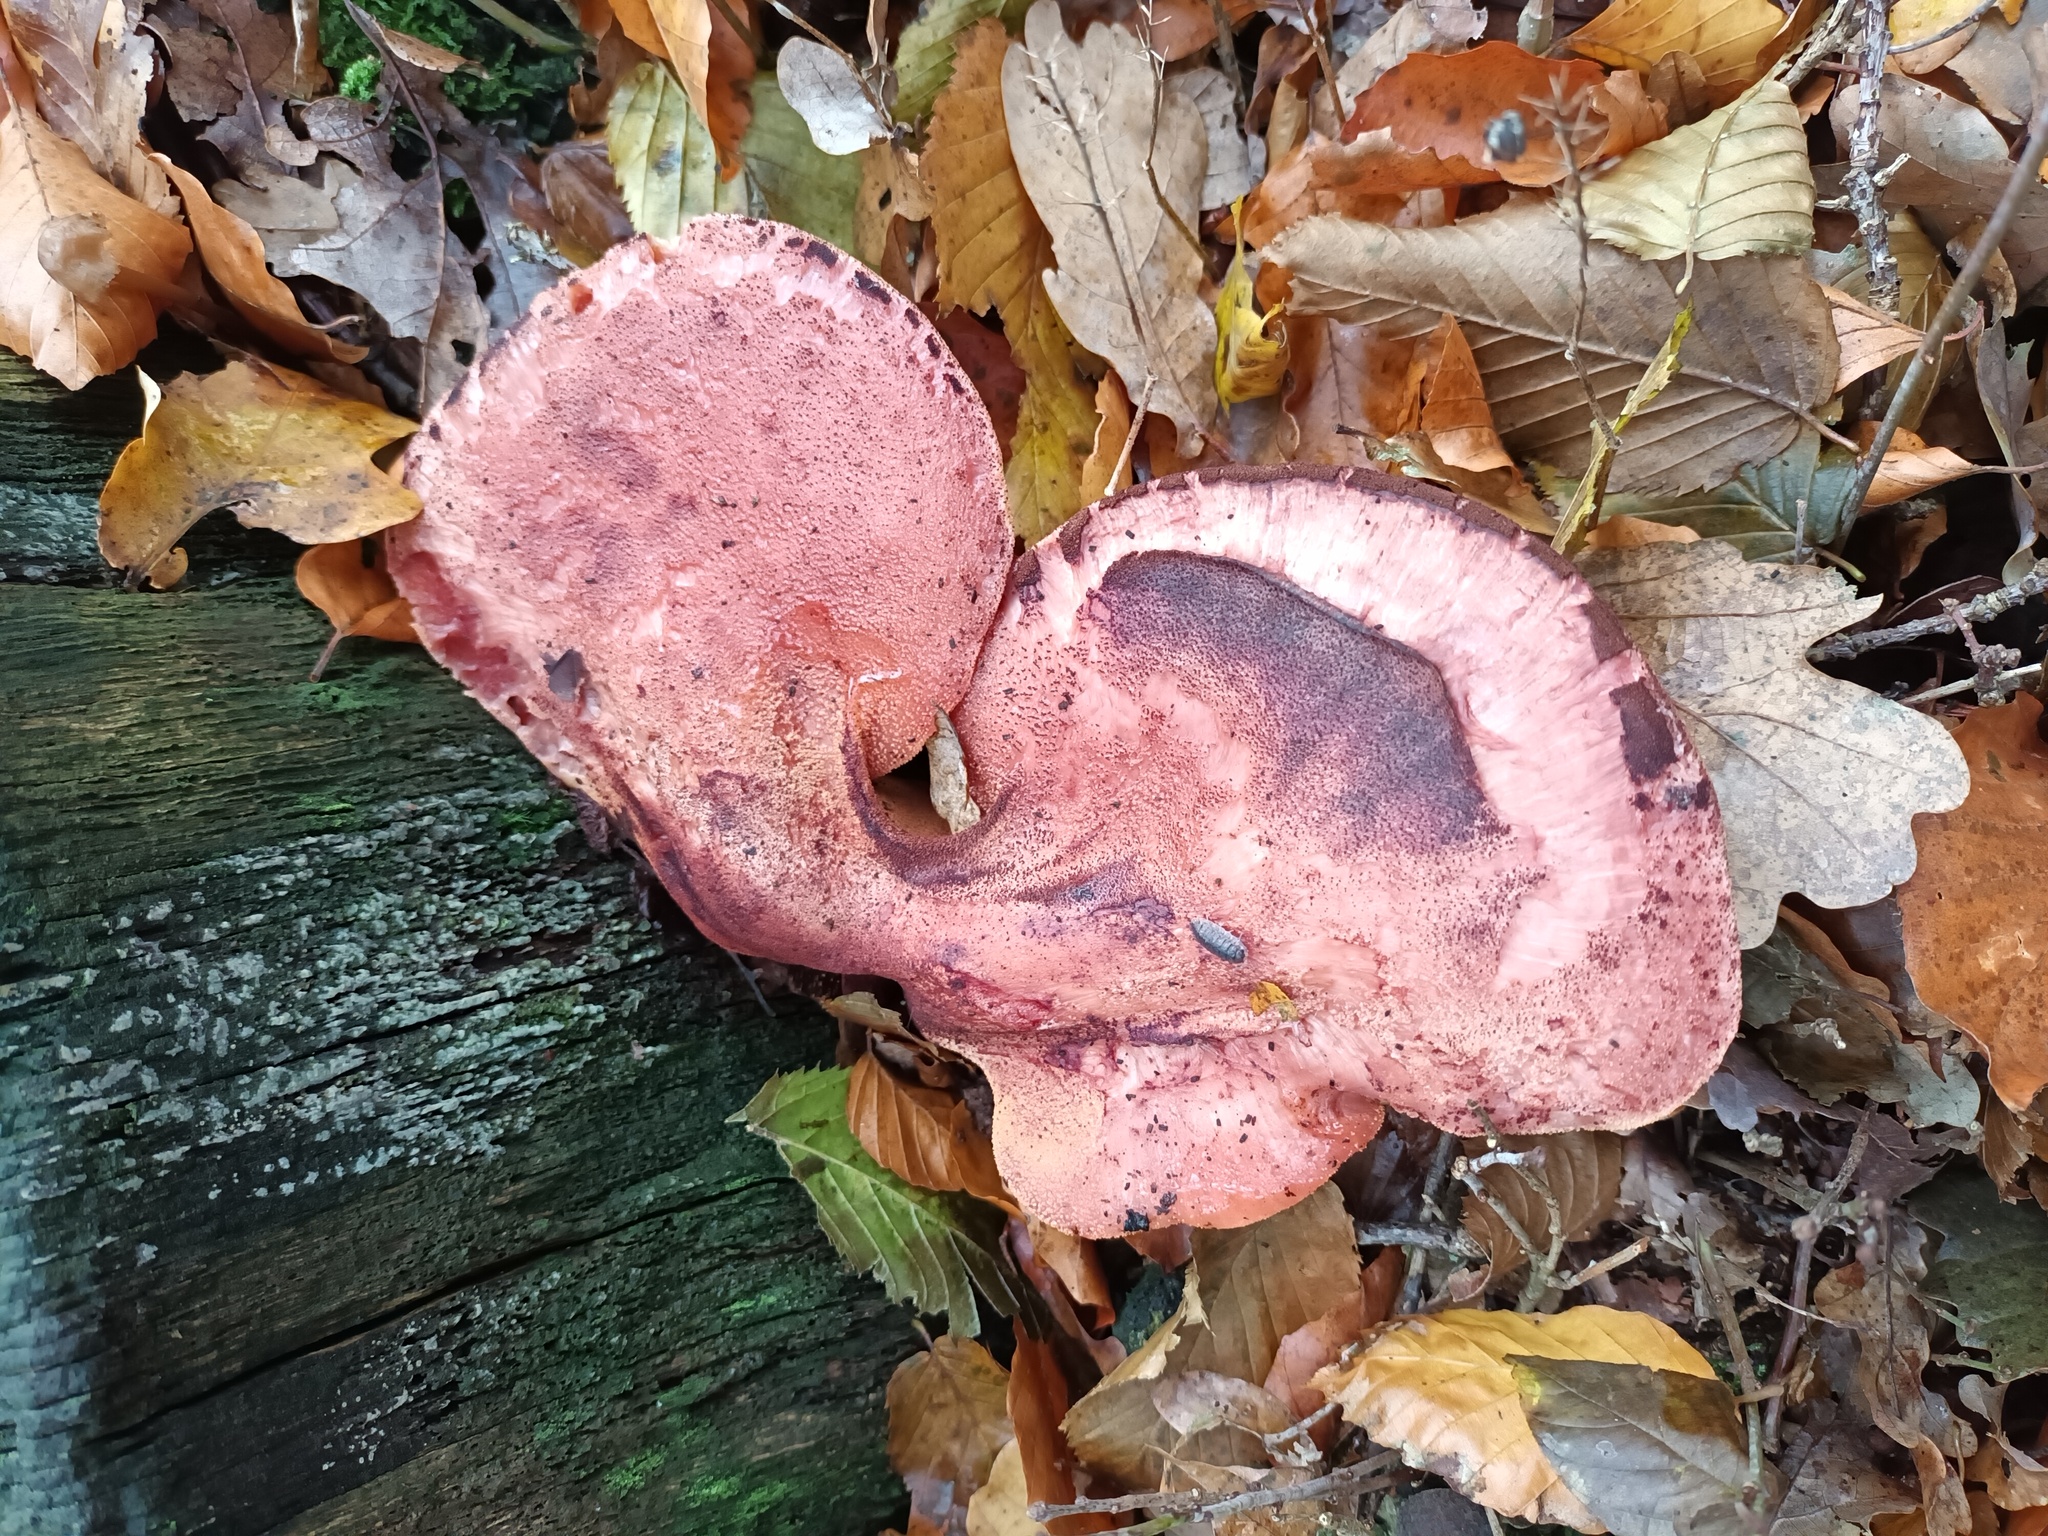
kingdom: Fungi
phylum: Basidiomycota
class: Agaricomycetes
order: Agaricales
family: Fistulinaceae
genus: Fistulina
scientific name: Fistulina hepatica
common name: Beef-steak fungus
